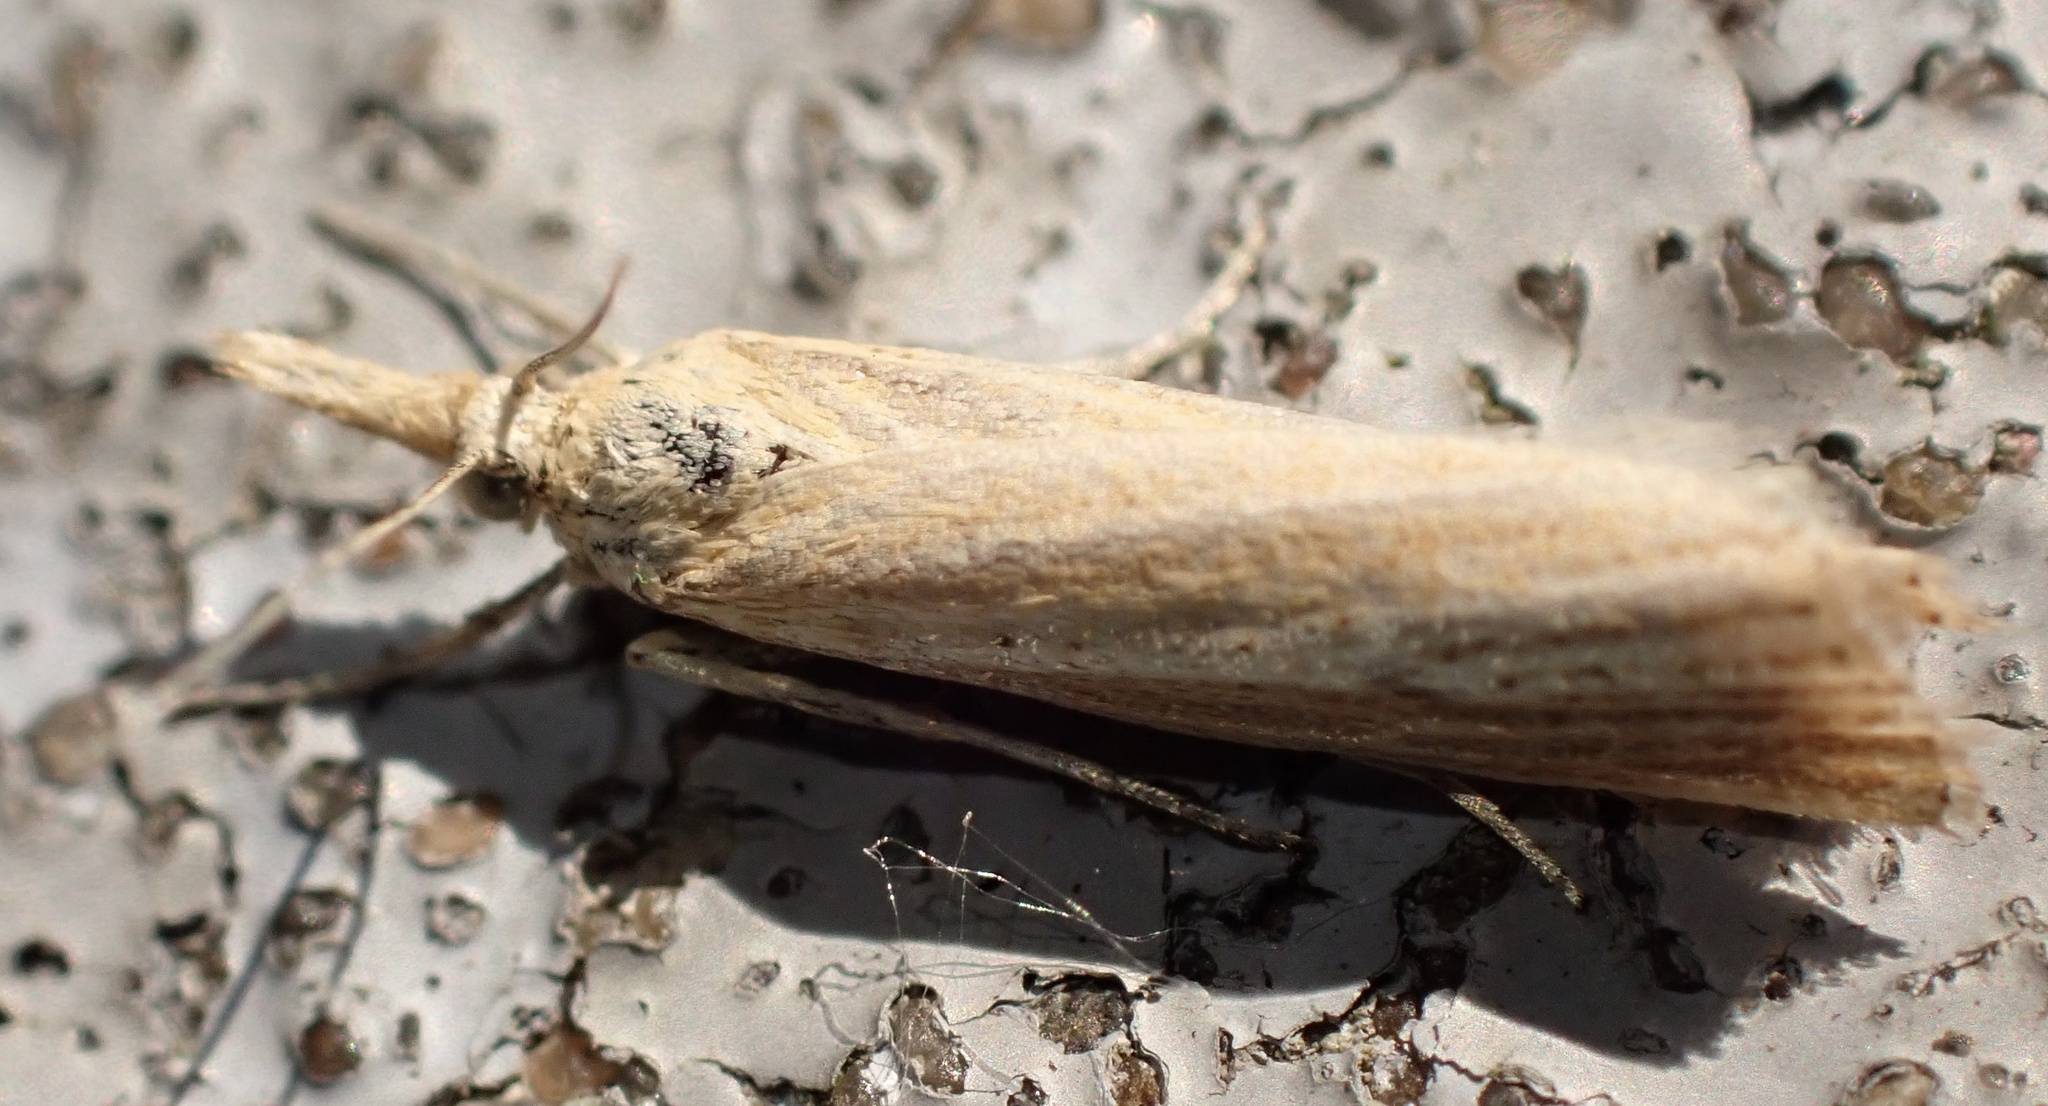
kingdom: Animalia
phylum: Arthropoda
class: Insecta
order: Lepidoptera
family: Crambidae
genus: Agriphila
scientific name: Agriphila straminella
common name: Straw grass-veneer
